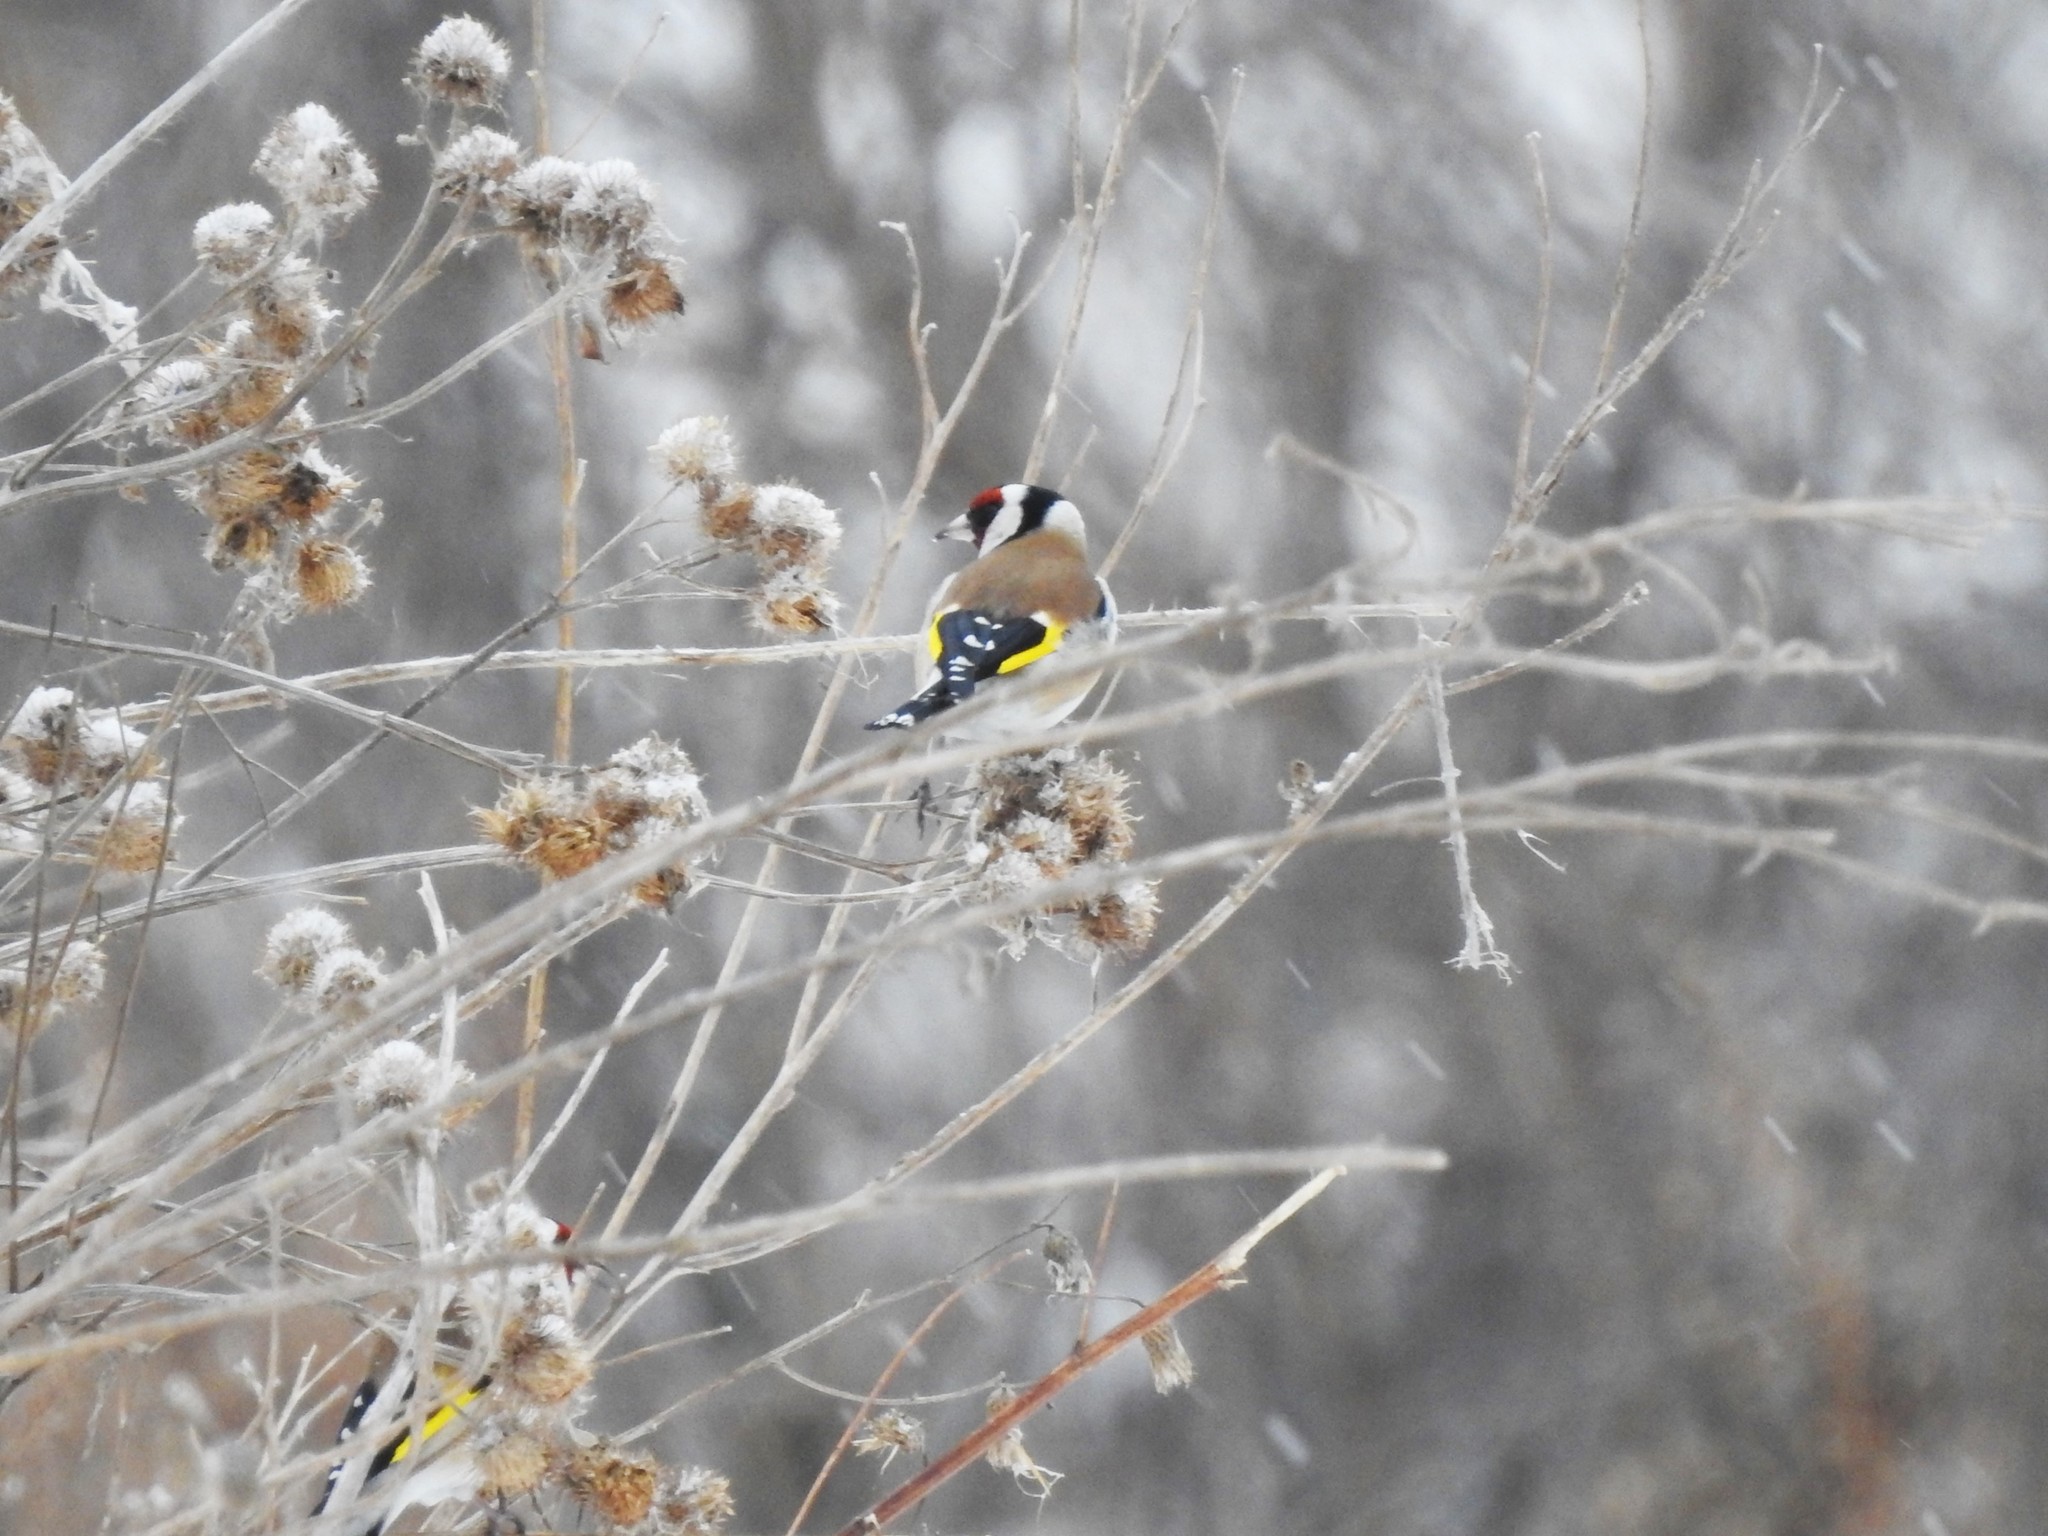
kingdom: Animalia
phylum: Chordata
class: Aves
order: Passeriformes
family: Fringillidae
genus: Carduelis
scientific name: Carduelis carduelis
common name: European goldfinch
